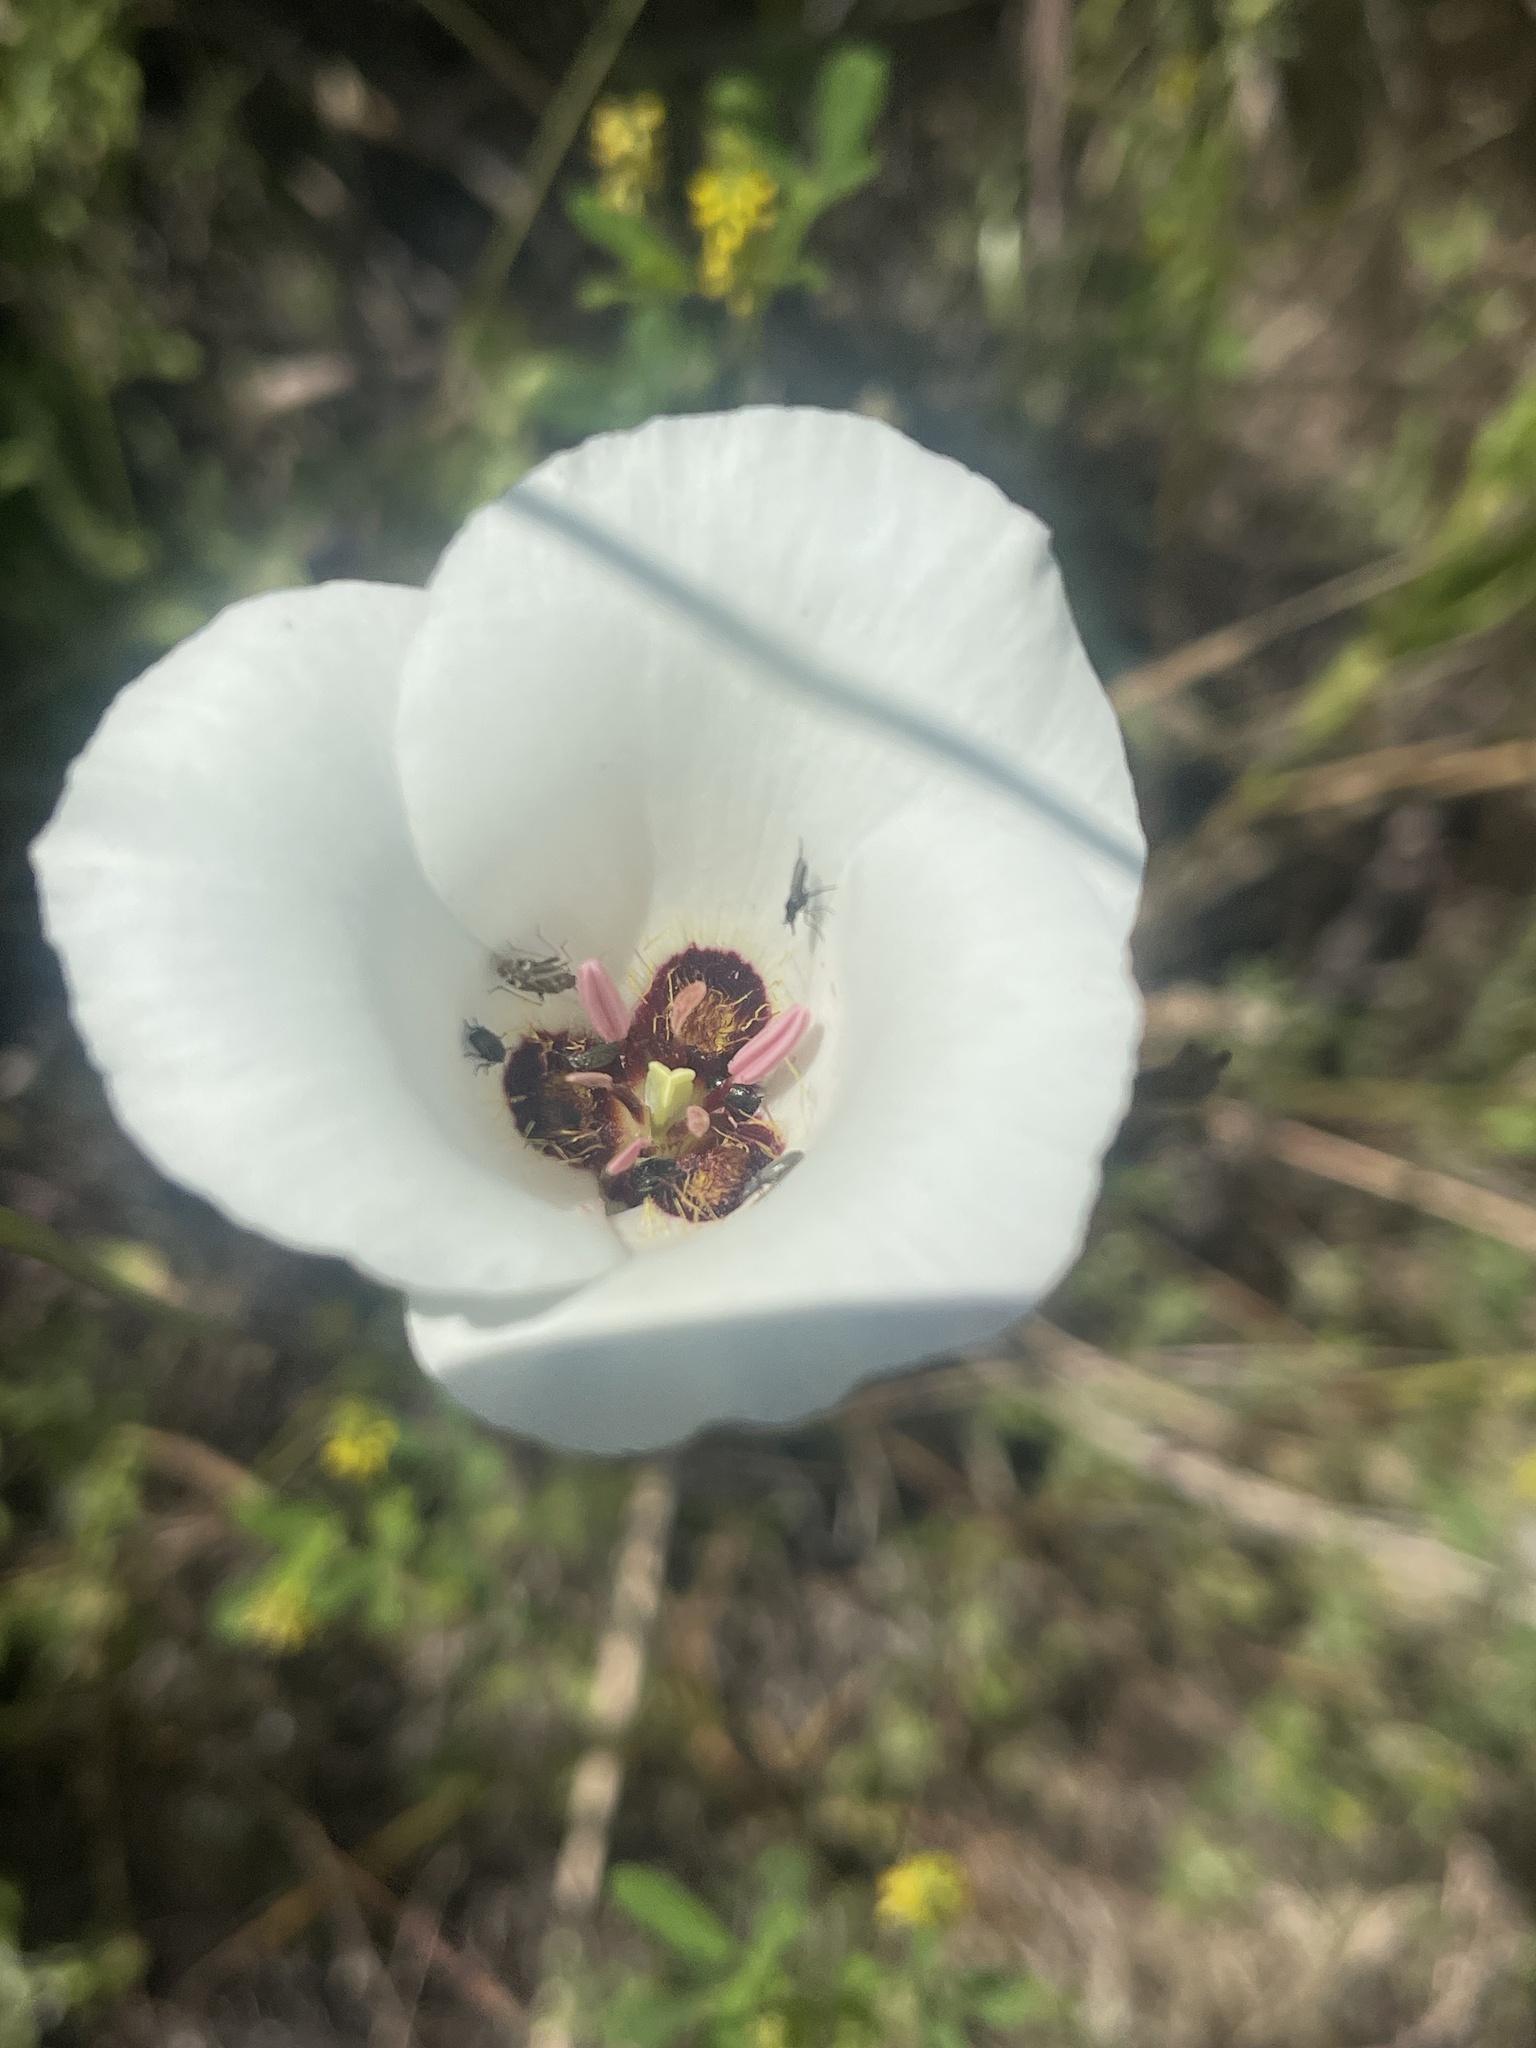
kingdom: Plantae
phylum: Tracheophyta
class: Liliopsida
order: Liliales
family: Liliaceae
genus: Calochortus
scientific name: Calochortus catalinae
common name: Catalina mariposa-lily
